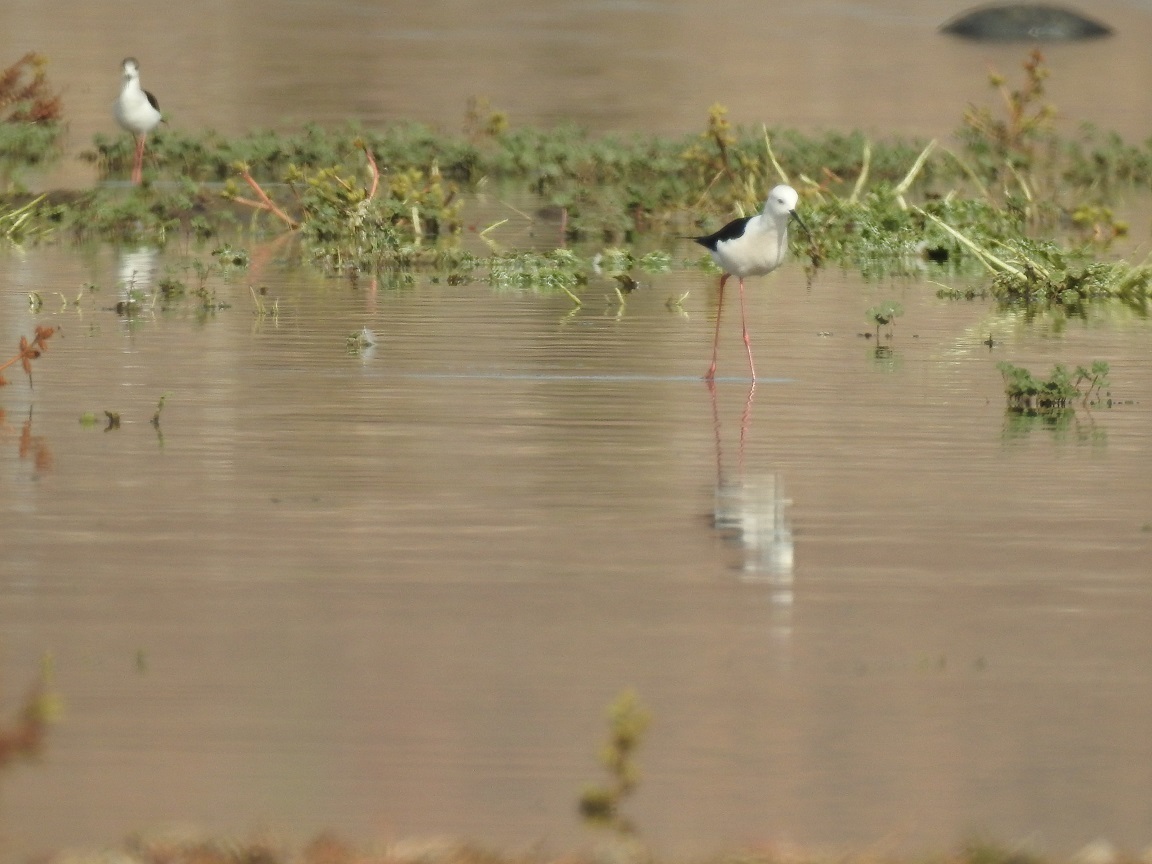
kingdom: Animalia
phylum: Chordata
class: Aves
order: Charadriiformes
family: Recurvirostridae
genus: Himantopus
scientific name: Himantopus himantopus
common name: Black-winged stilt
